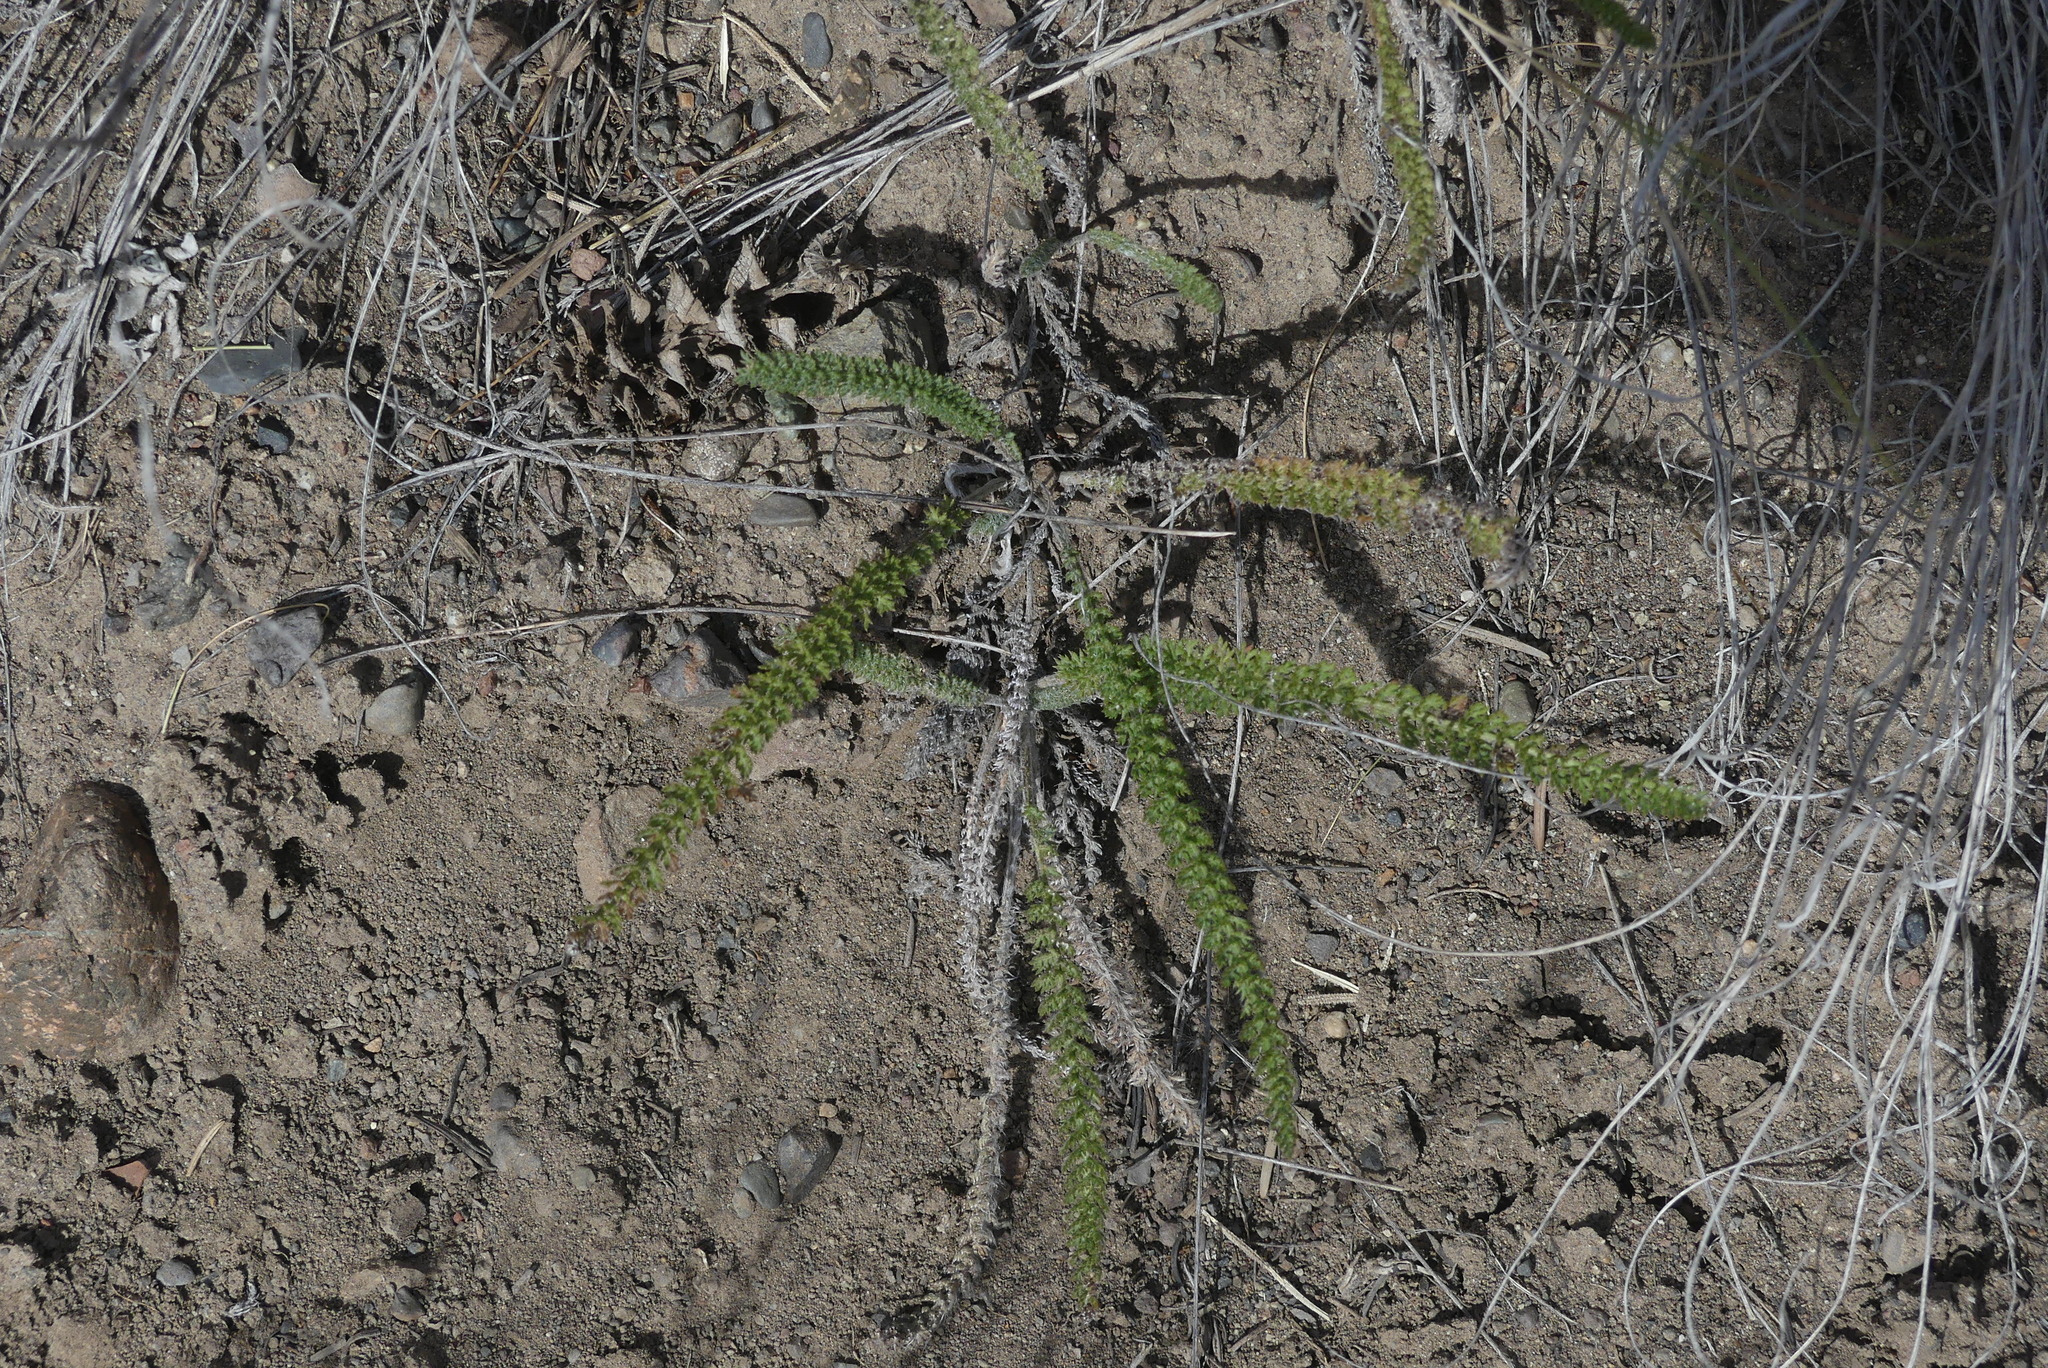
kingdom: Plantae
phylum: Tracheophyta
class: Magnoliopsida
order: Asterales
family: Asteraceae
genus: Achillea
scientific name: Achillea millefolium
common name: Yarrow
